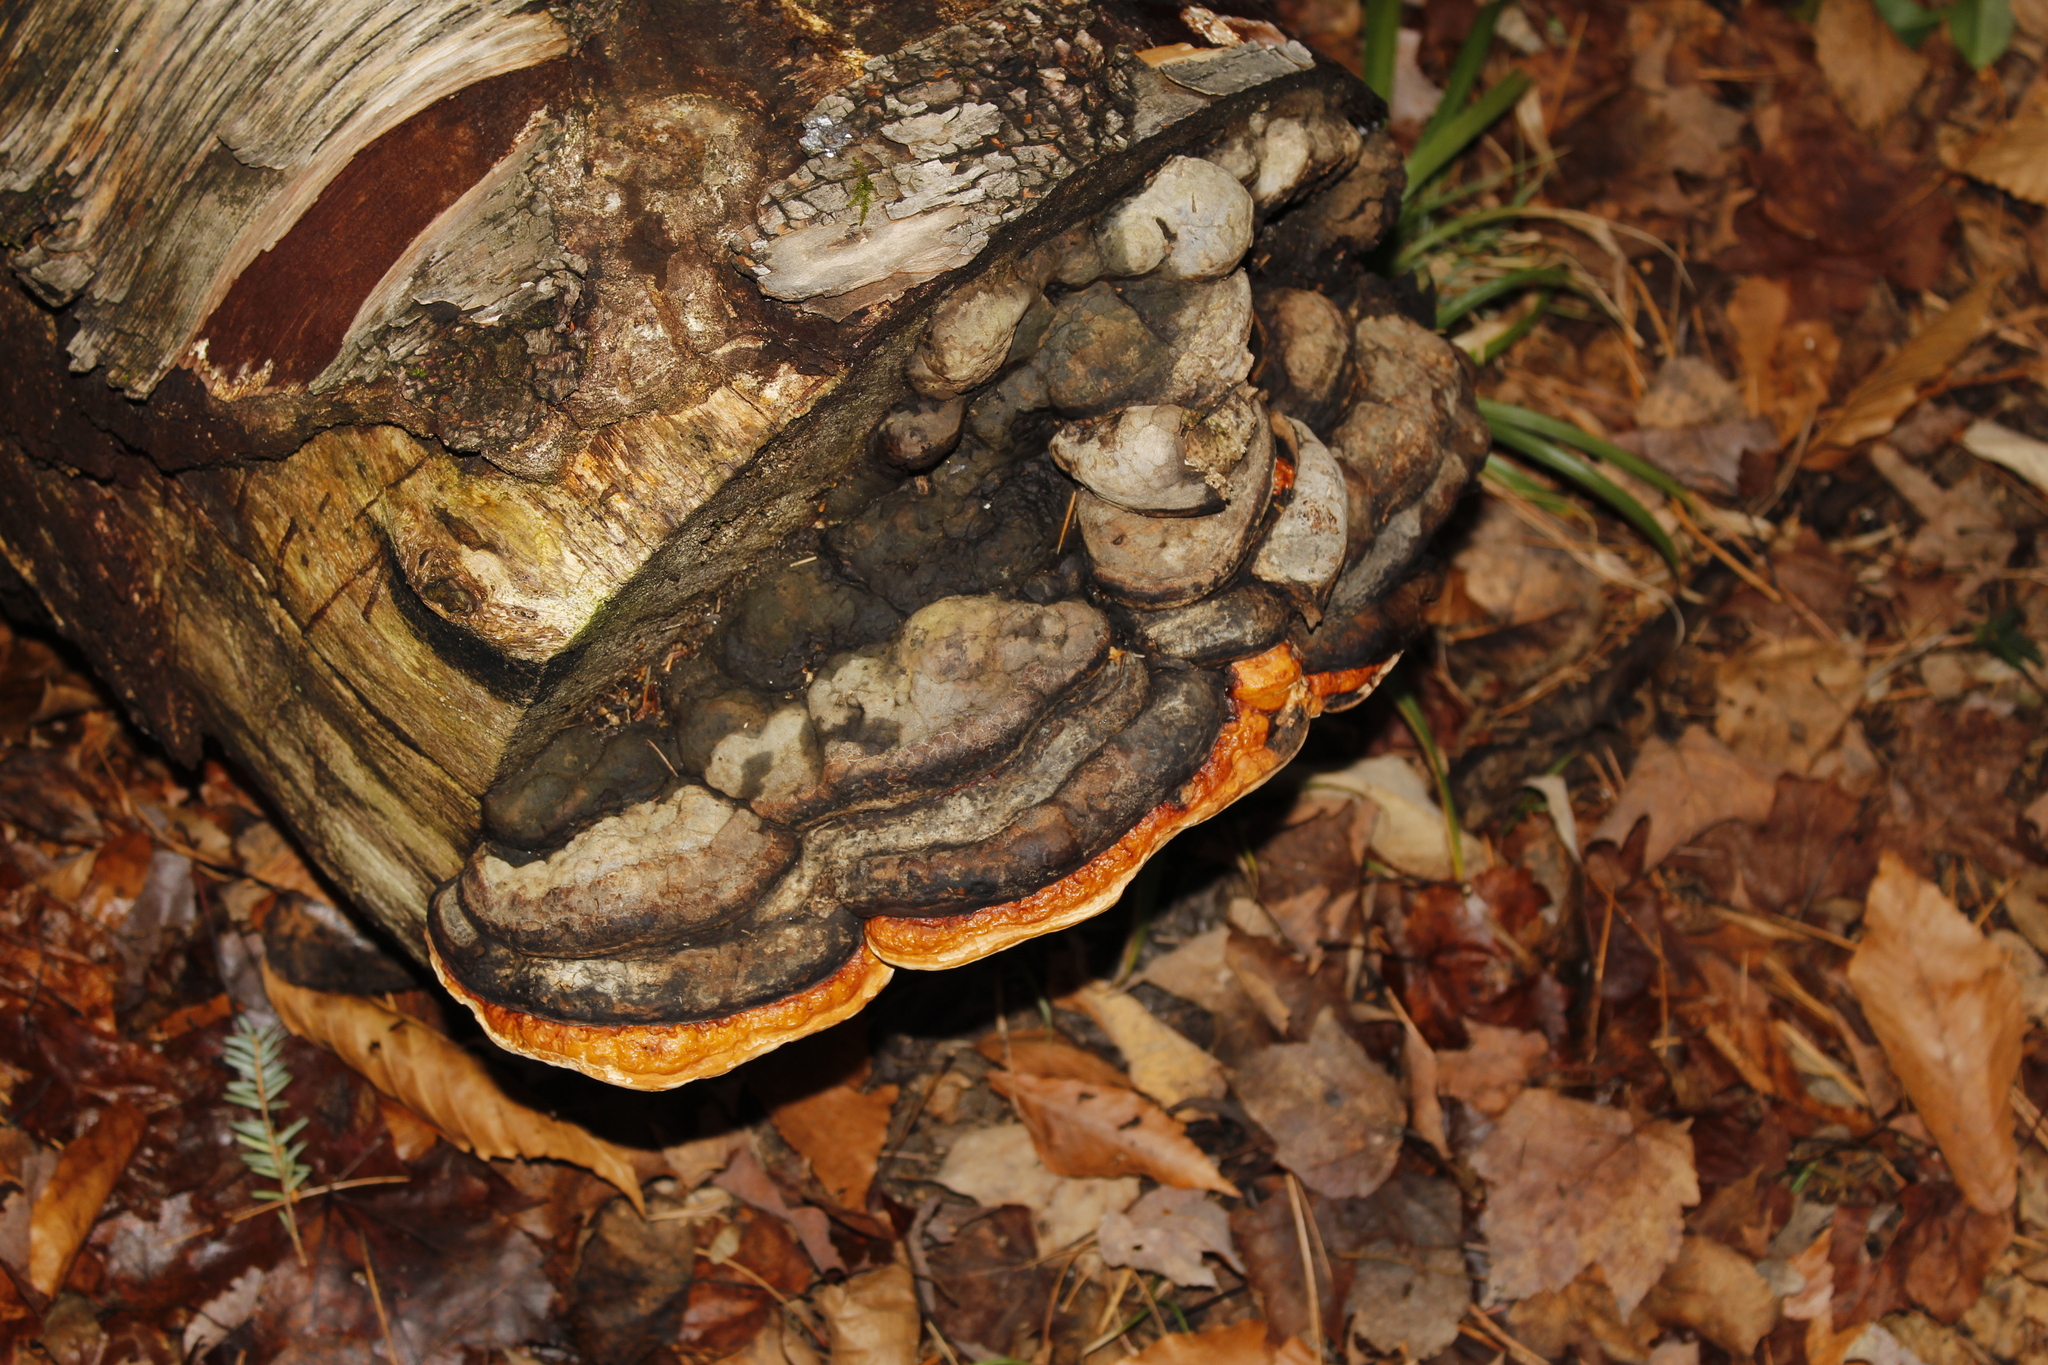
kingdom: Fungi
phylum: Basidiomycota
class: Agaricomycetes
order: Polyporales
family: Fomitopsidaceae
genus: Fomitopsis
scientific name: Fomitopsis mounceae
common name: Northern red belt
